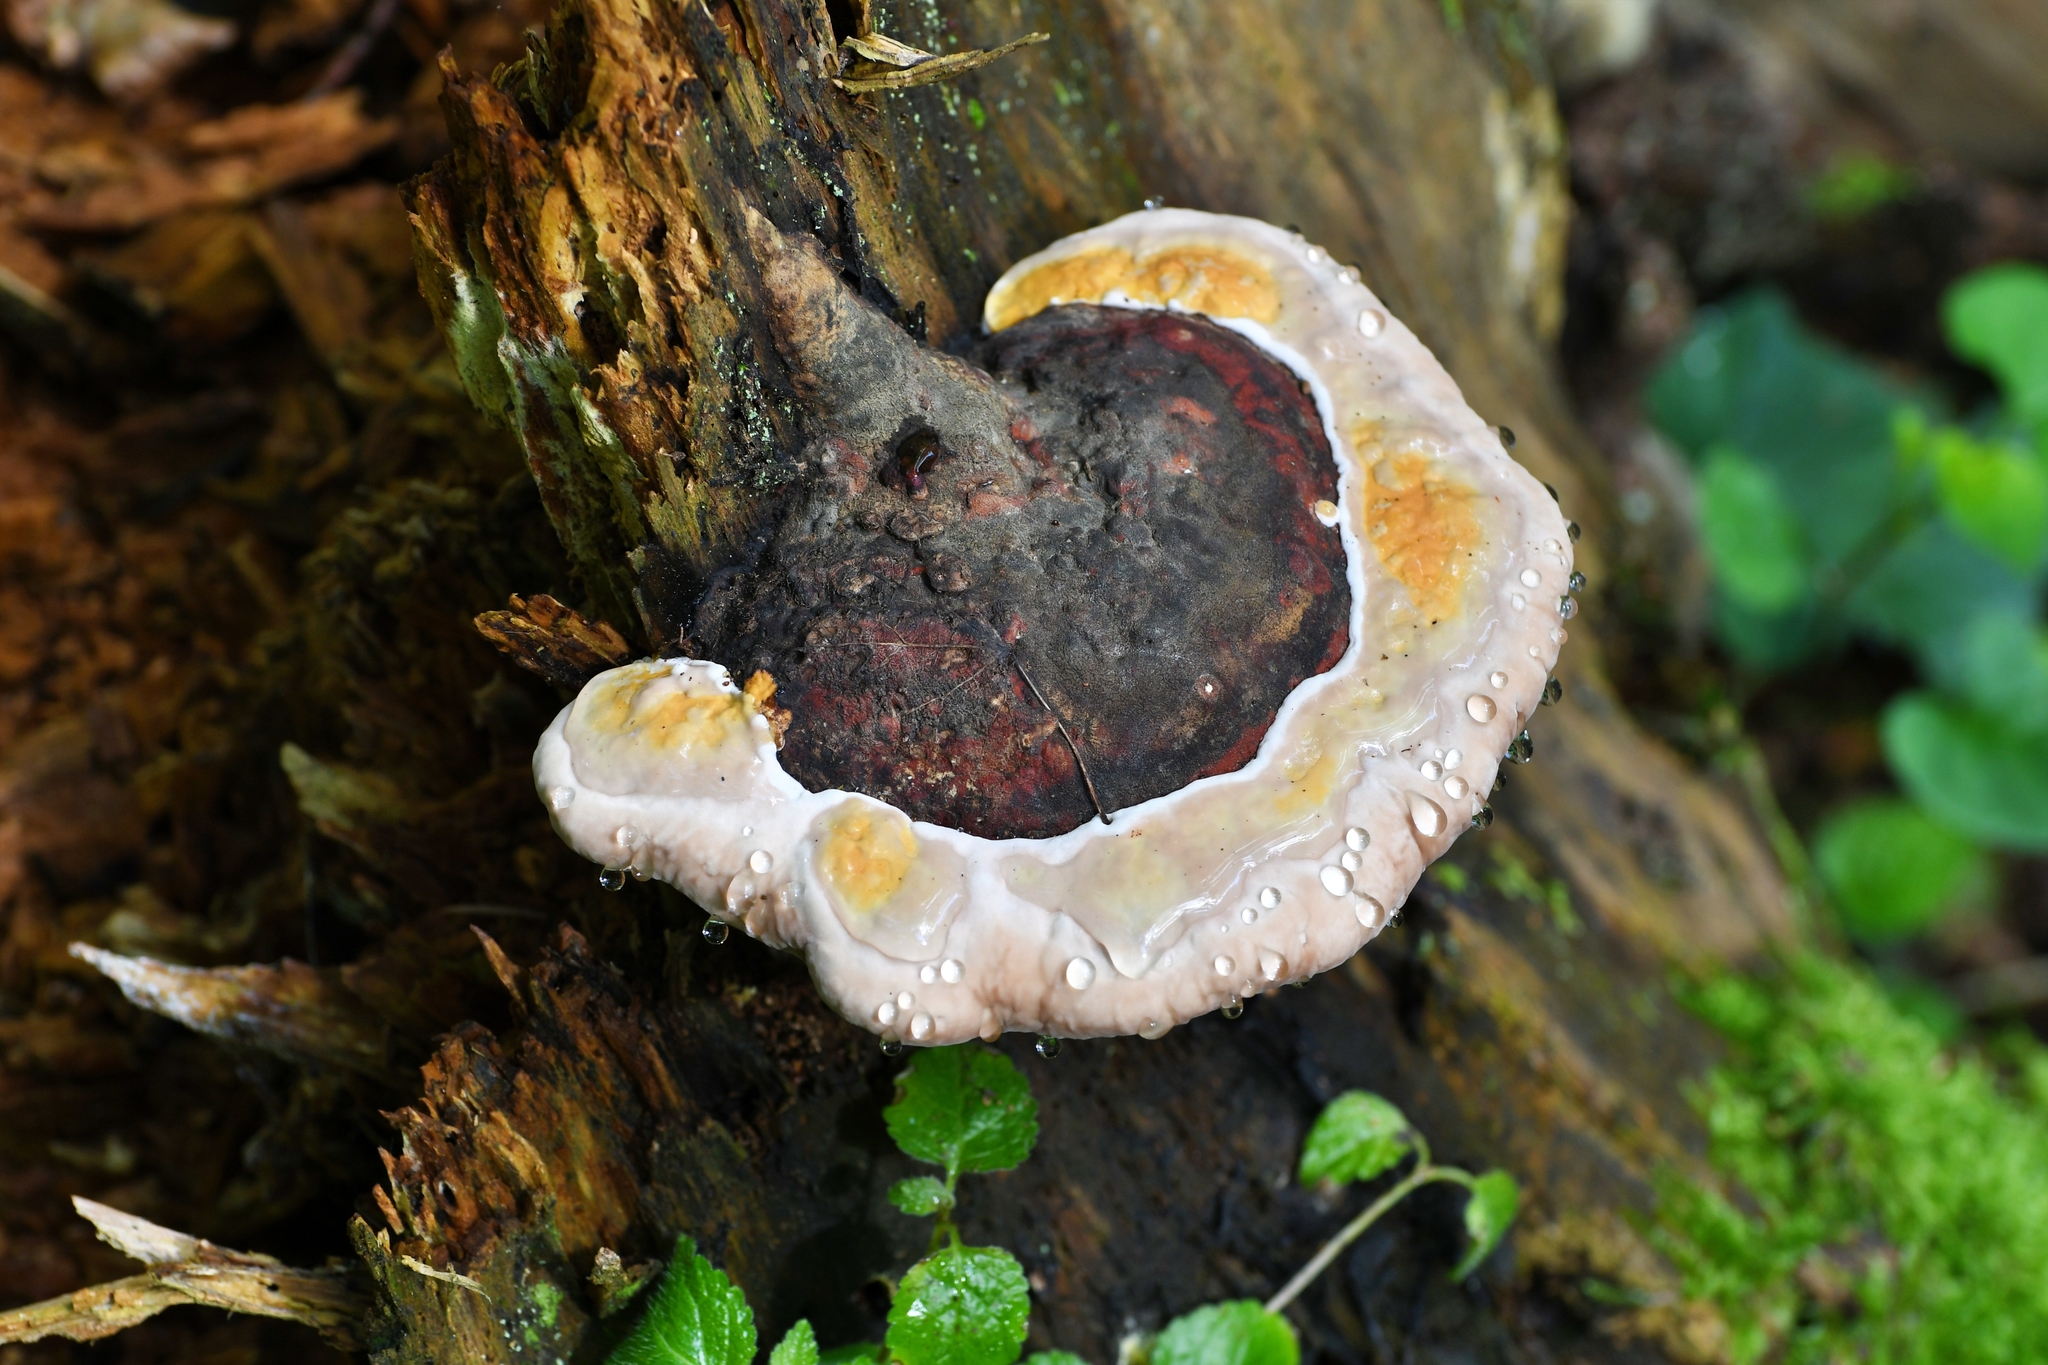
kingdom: Fungi
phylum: Basidiomycota
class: Agaricomycetes
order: Polyporales
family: Fomitopsidaceae
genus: Fomitopsis
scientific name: Fomitopsis pinicola
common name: Red-belted bracket
